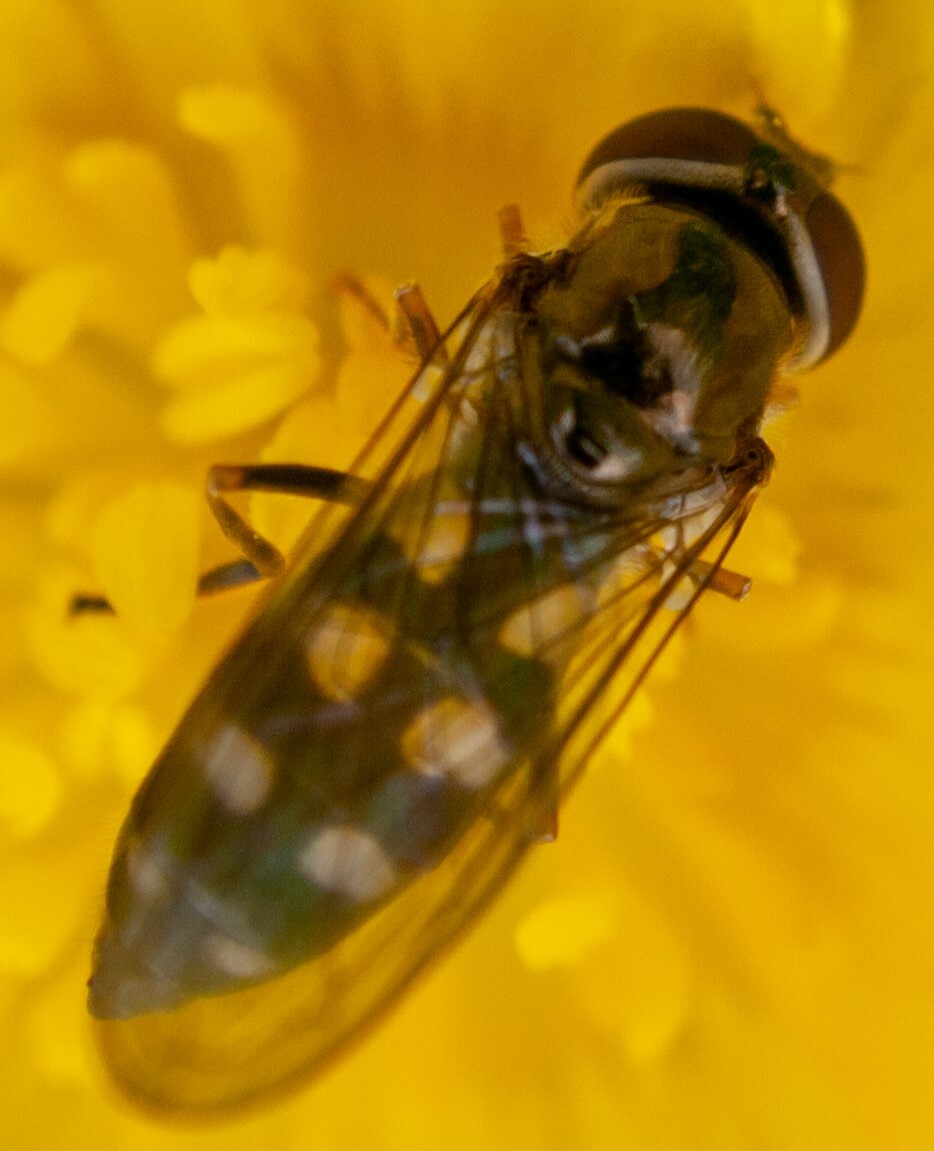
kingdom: Animalia
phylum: Arthropoda
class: Insecta
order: Diptera
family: Syrphidae
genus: Platycheirus
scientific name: Platycheirus peltatus
